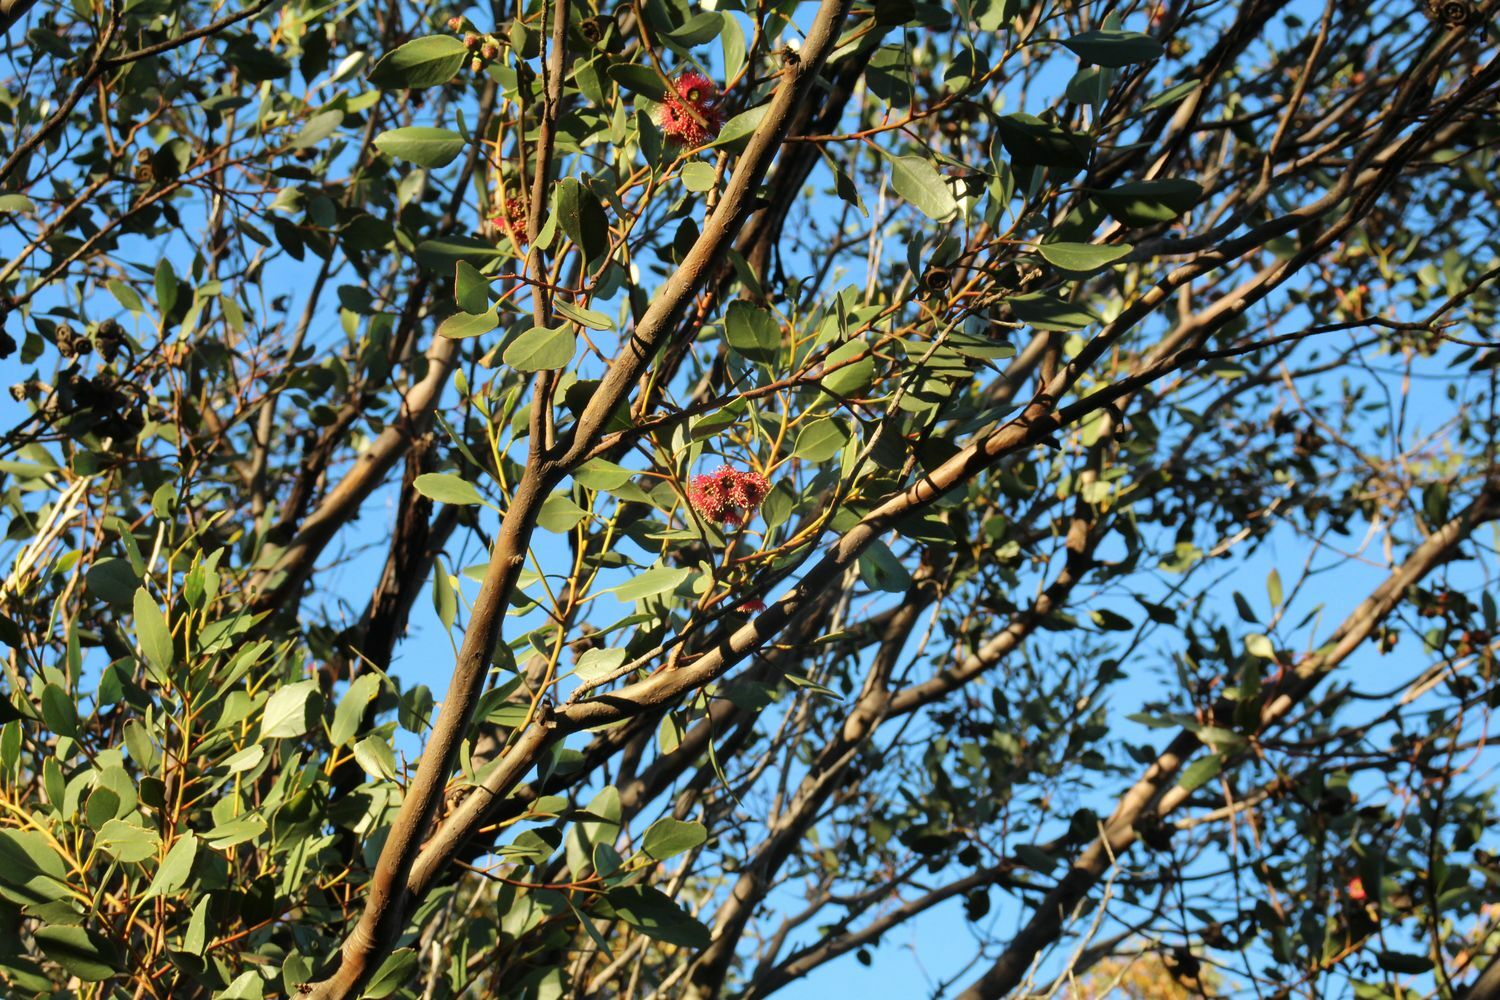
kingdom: Plantae
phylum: Tracheophyta
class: Magnoliopsida
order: Myrtales
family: Myrtaceae
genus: Eucalyptus
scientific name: Eucalyptus vesiculosa
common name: Corackerup marlock
